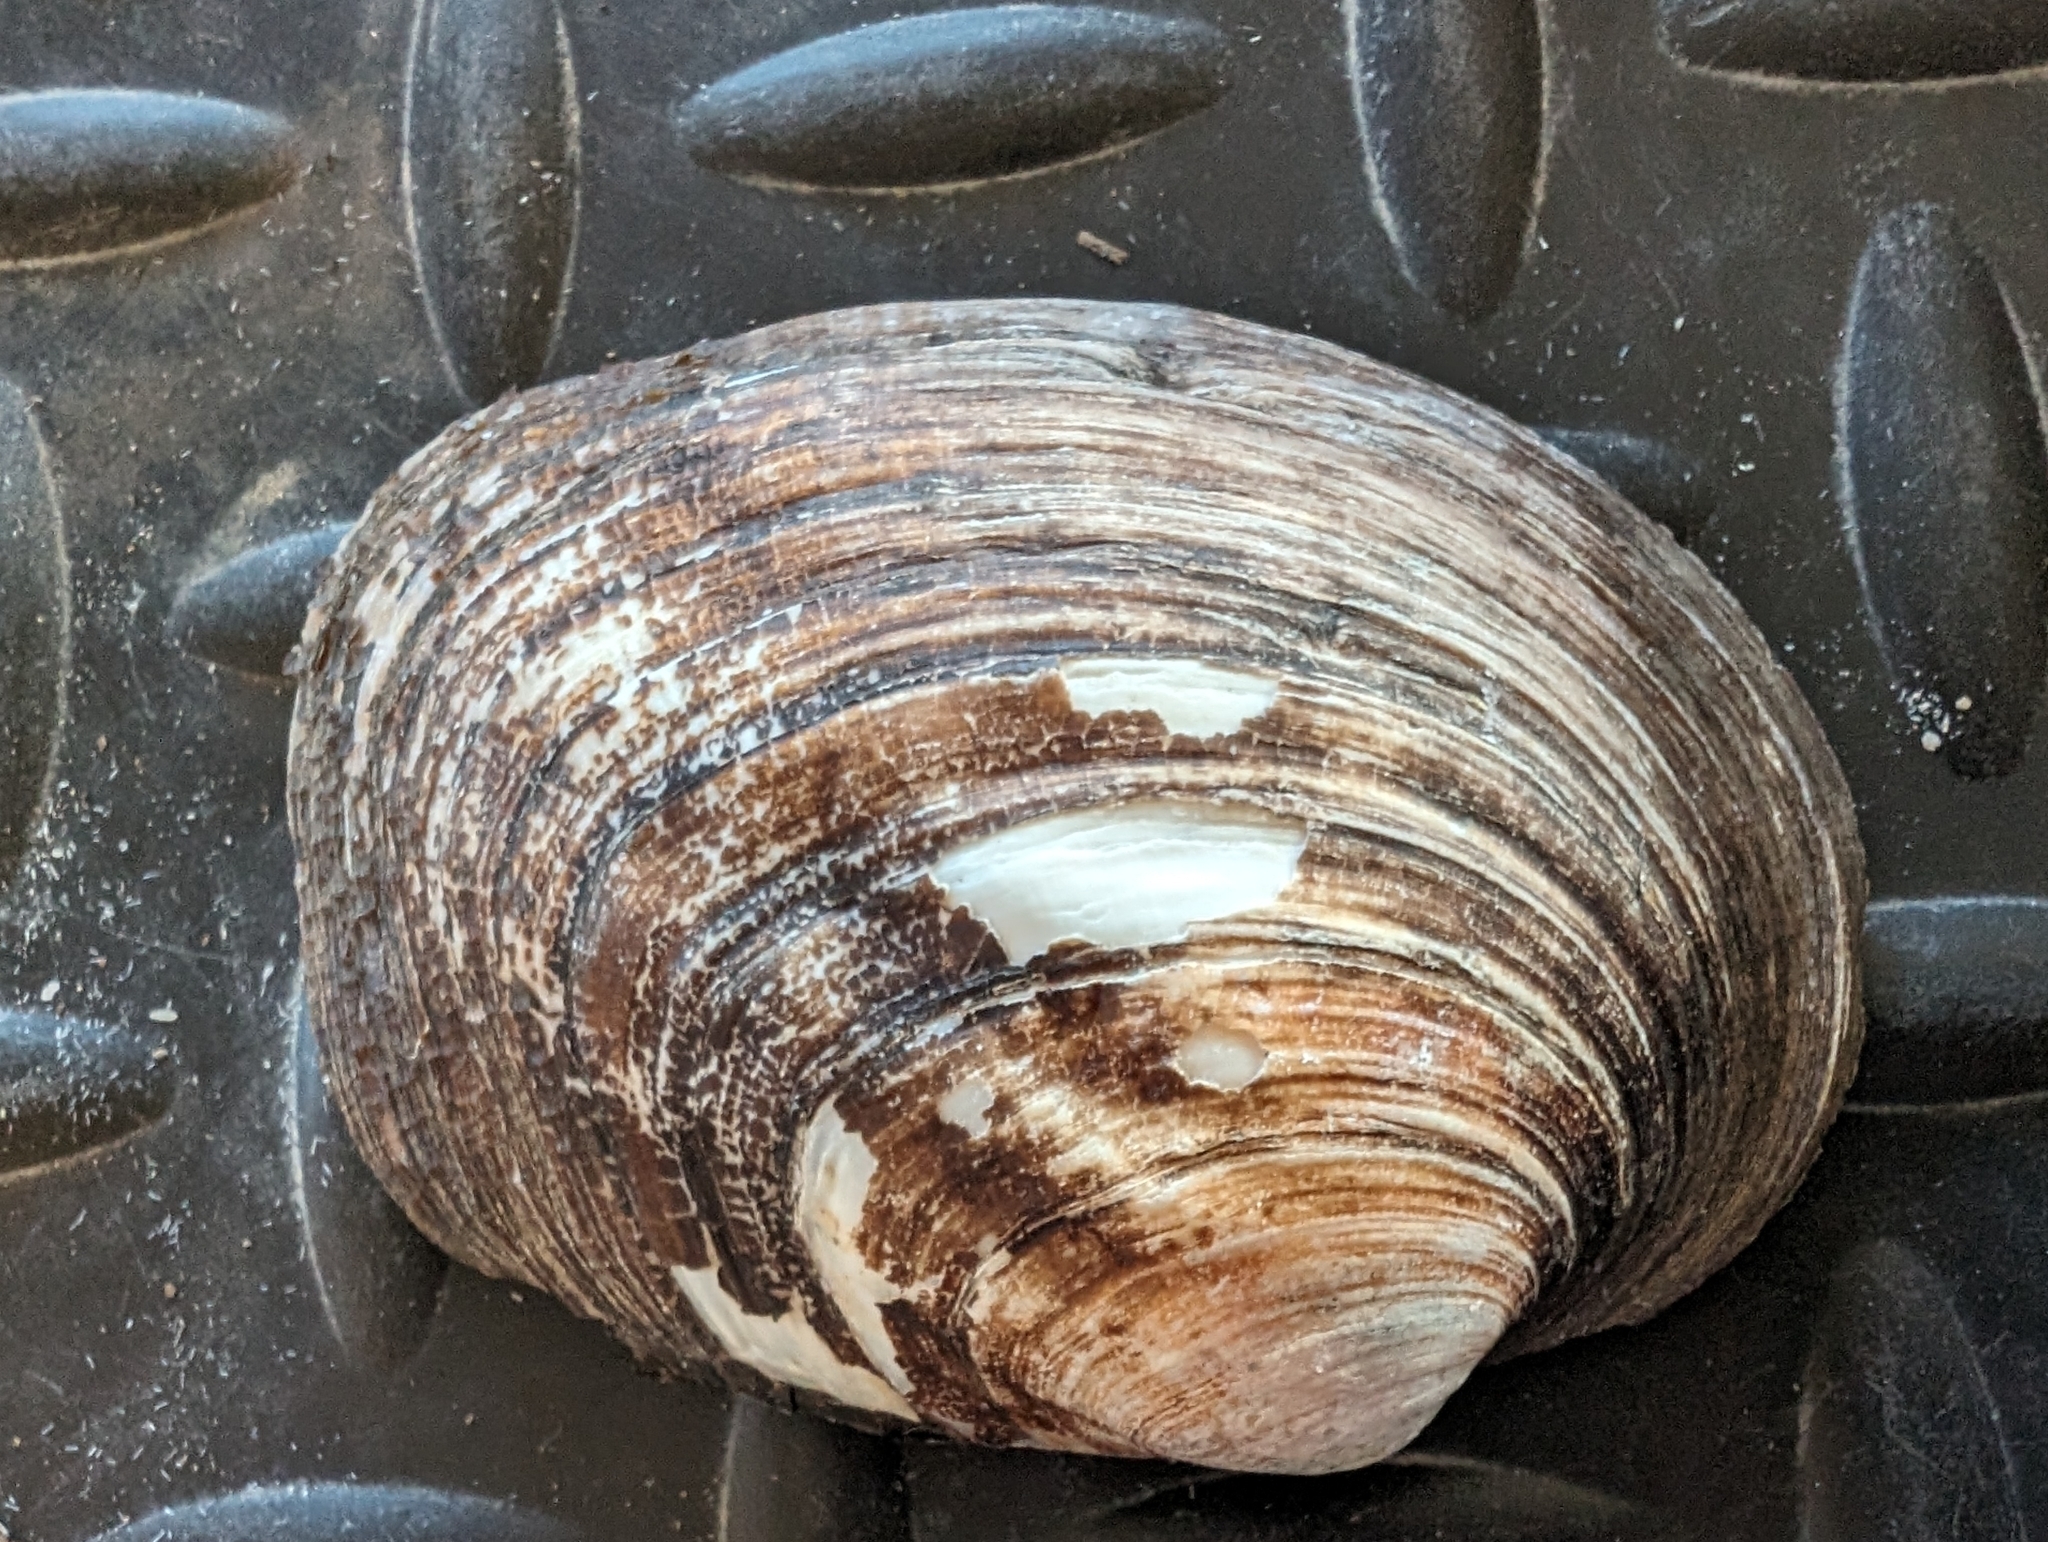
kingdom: Animalia
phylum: Mollusca
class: Bivalvia
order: Unionida
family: Unionidae
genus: Amblema
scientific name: Amblema plicata
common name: Threeridge
